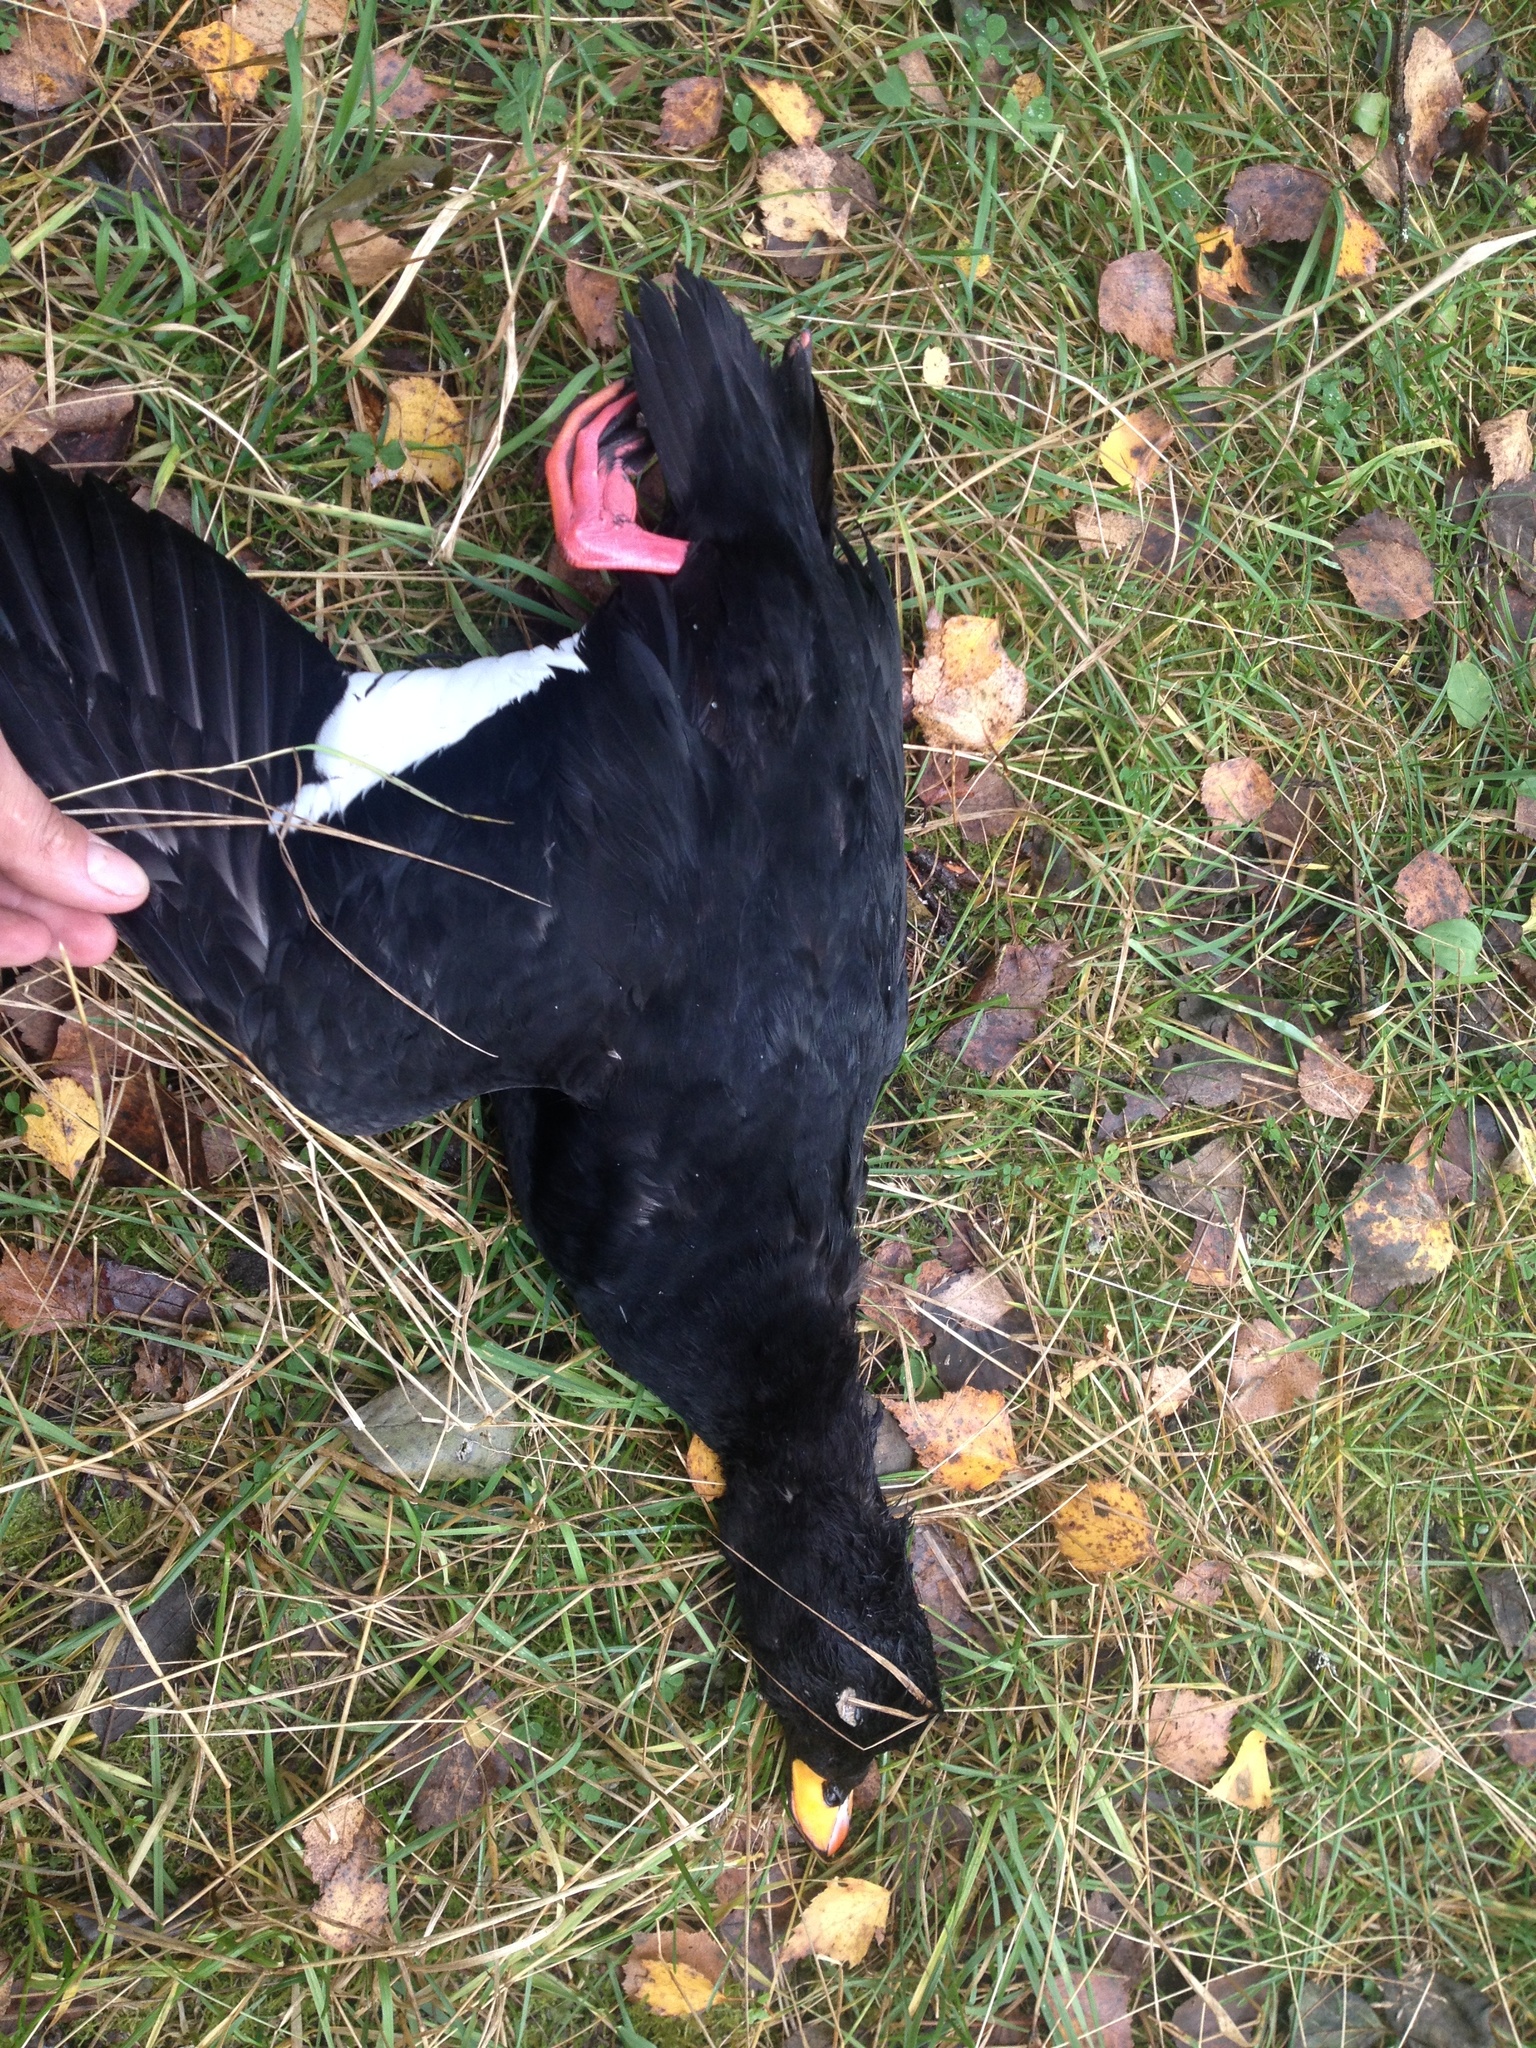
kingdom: Animalia
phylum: Chordata
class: Aves
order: Anseriformes
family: Anatidae
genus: Melanitta
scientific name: Melanitta fusca
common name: Velvet scoter
